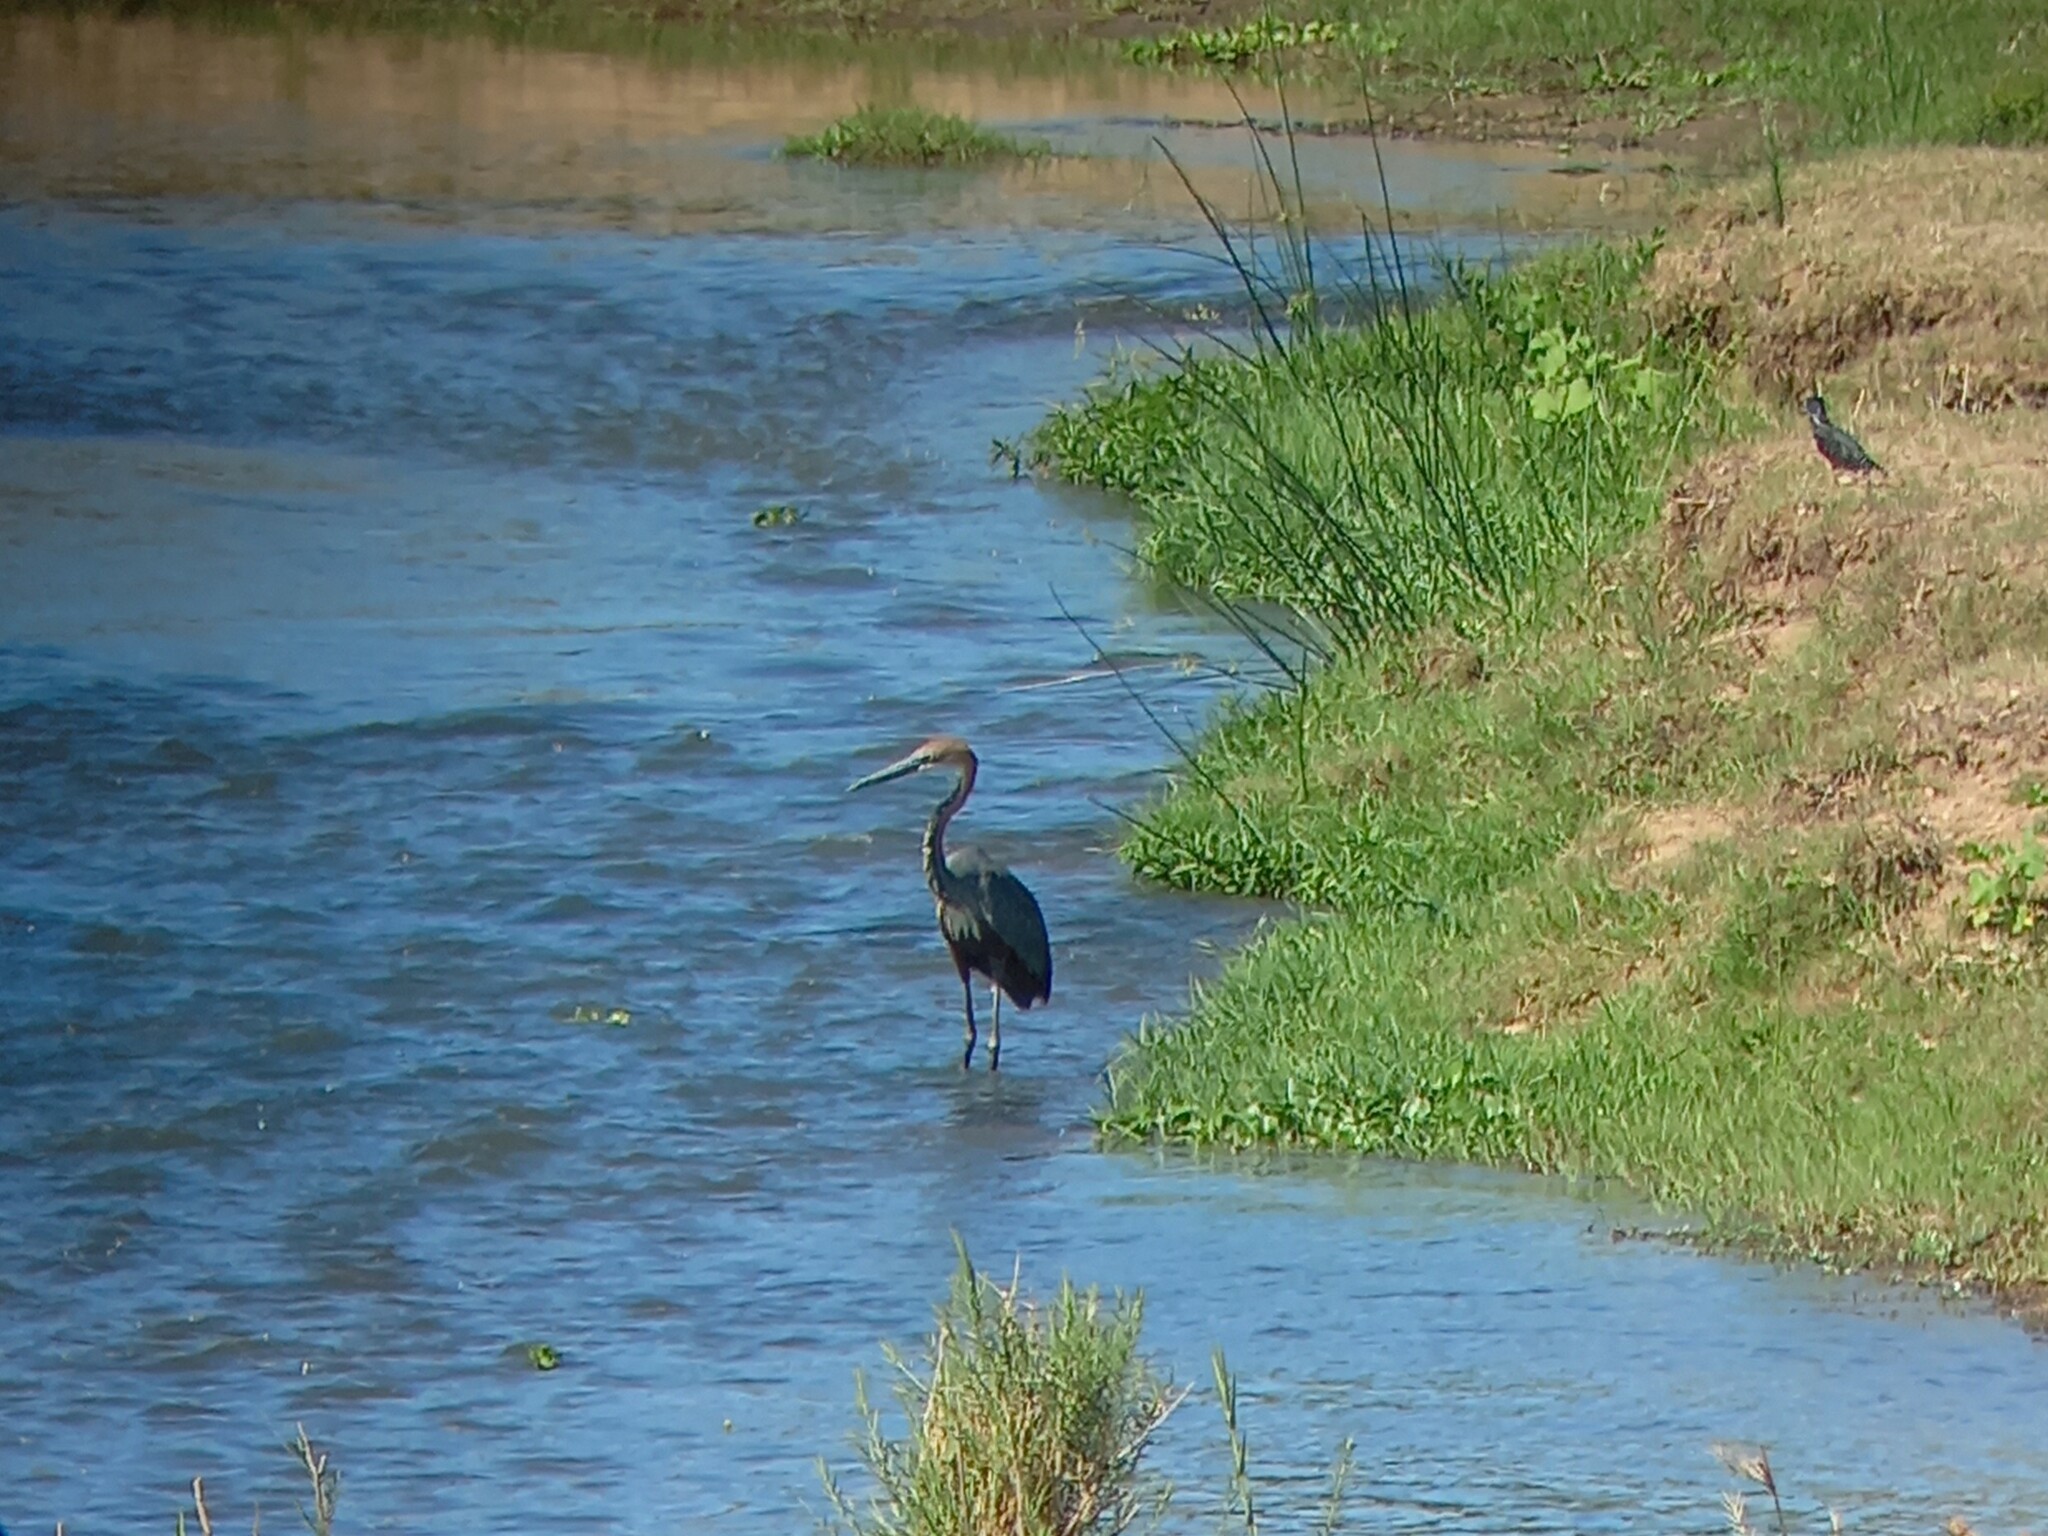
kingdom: Animalia
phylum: Chordata
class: Aves
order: Pelecaniformes
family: Ardeidae
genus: Ardea
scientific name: Ardea goliath
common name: Goliath heron
